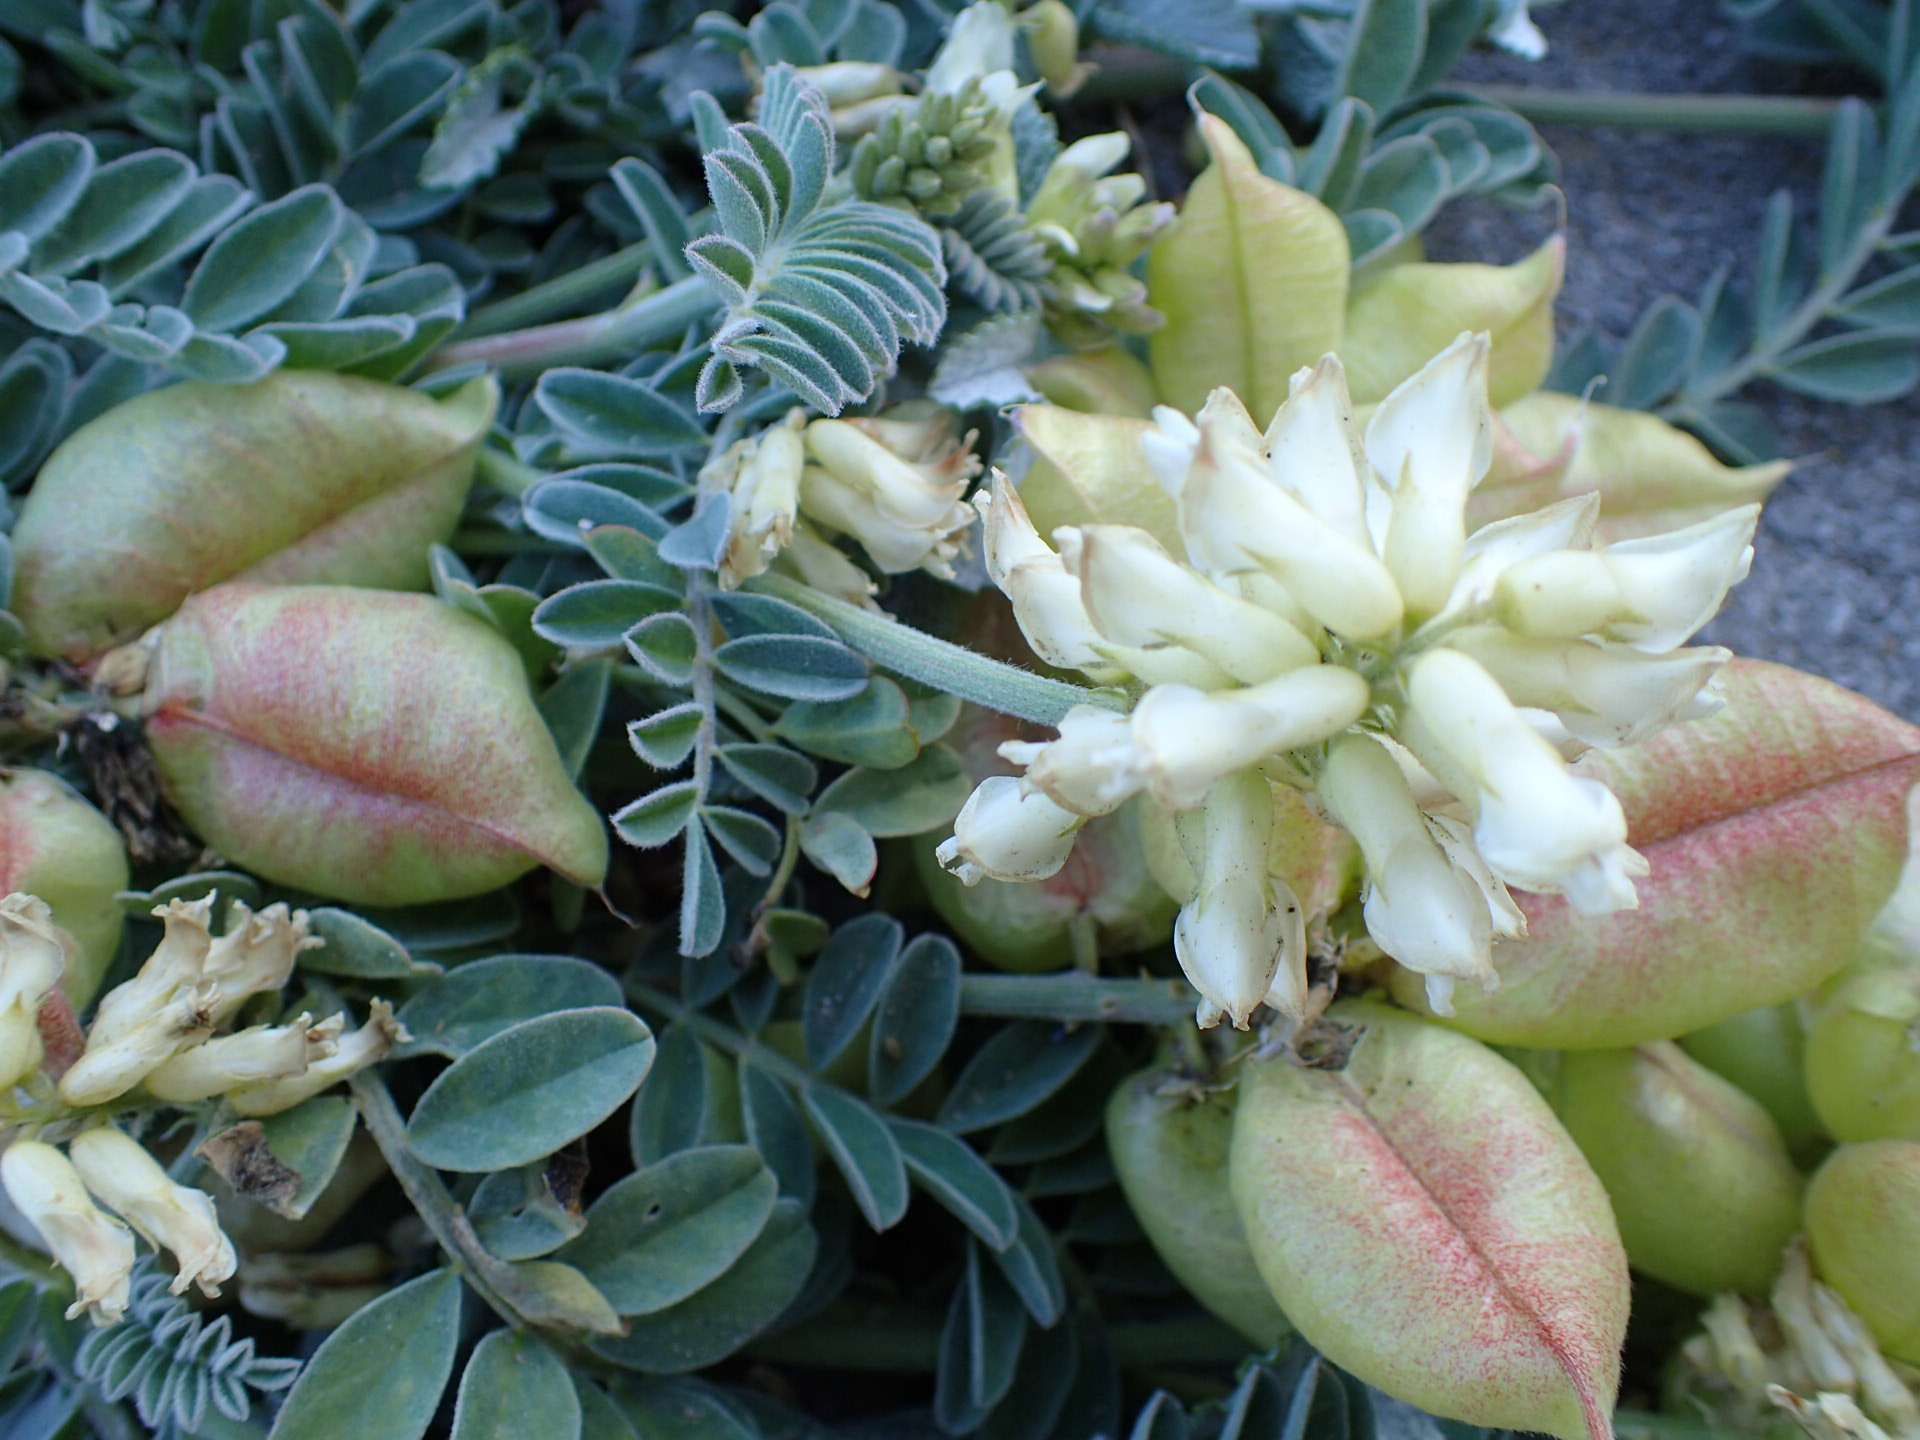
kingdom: Plantae
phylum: Tracheophyta
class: Magnoliopsida
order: Fabales
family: Fabaceae
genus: Astragalus
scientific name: Astragalus nuttallii
